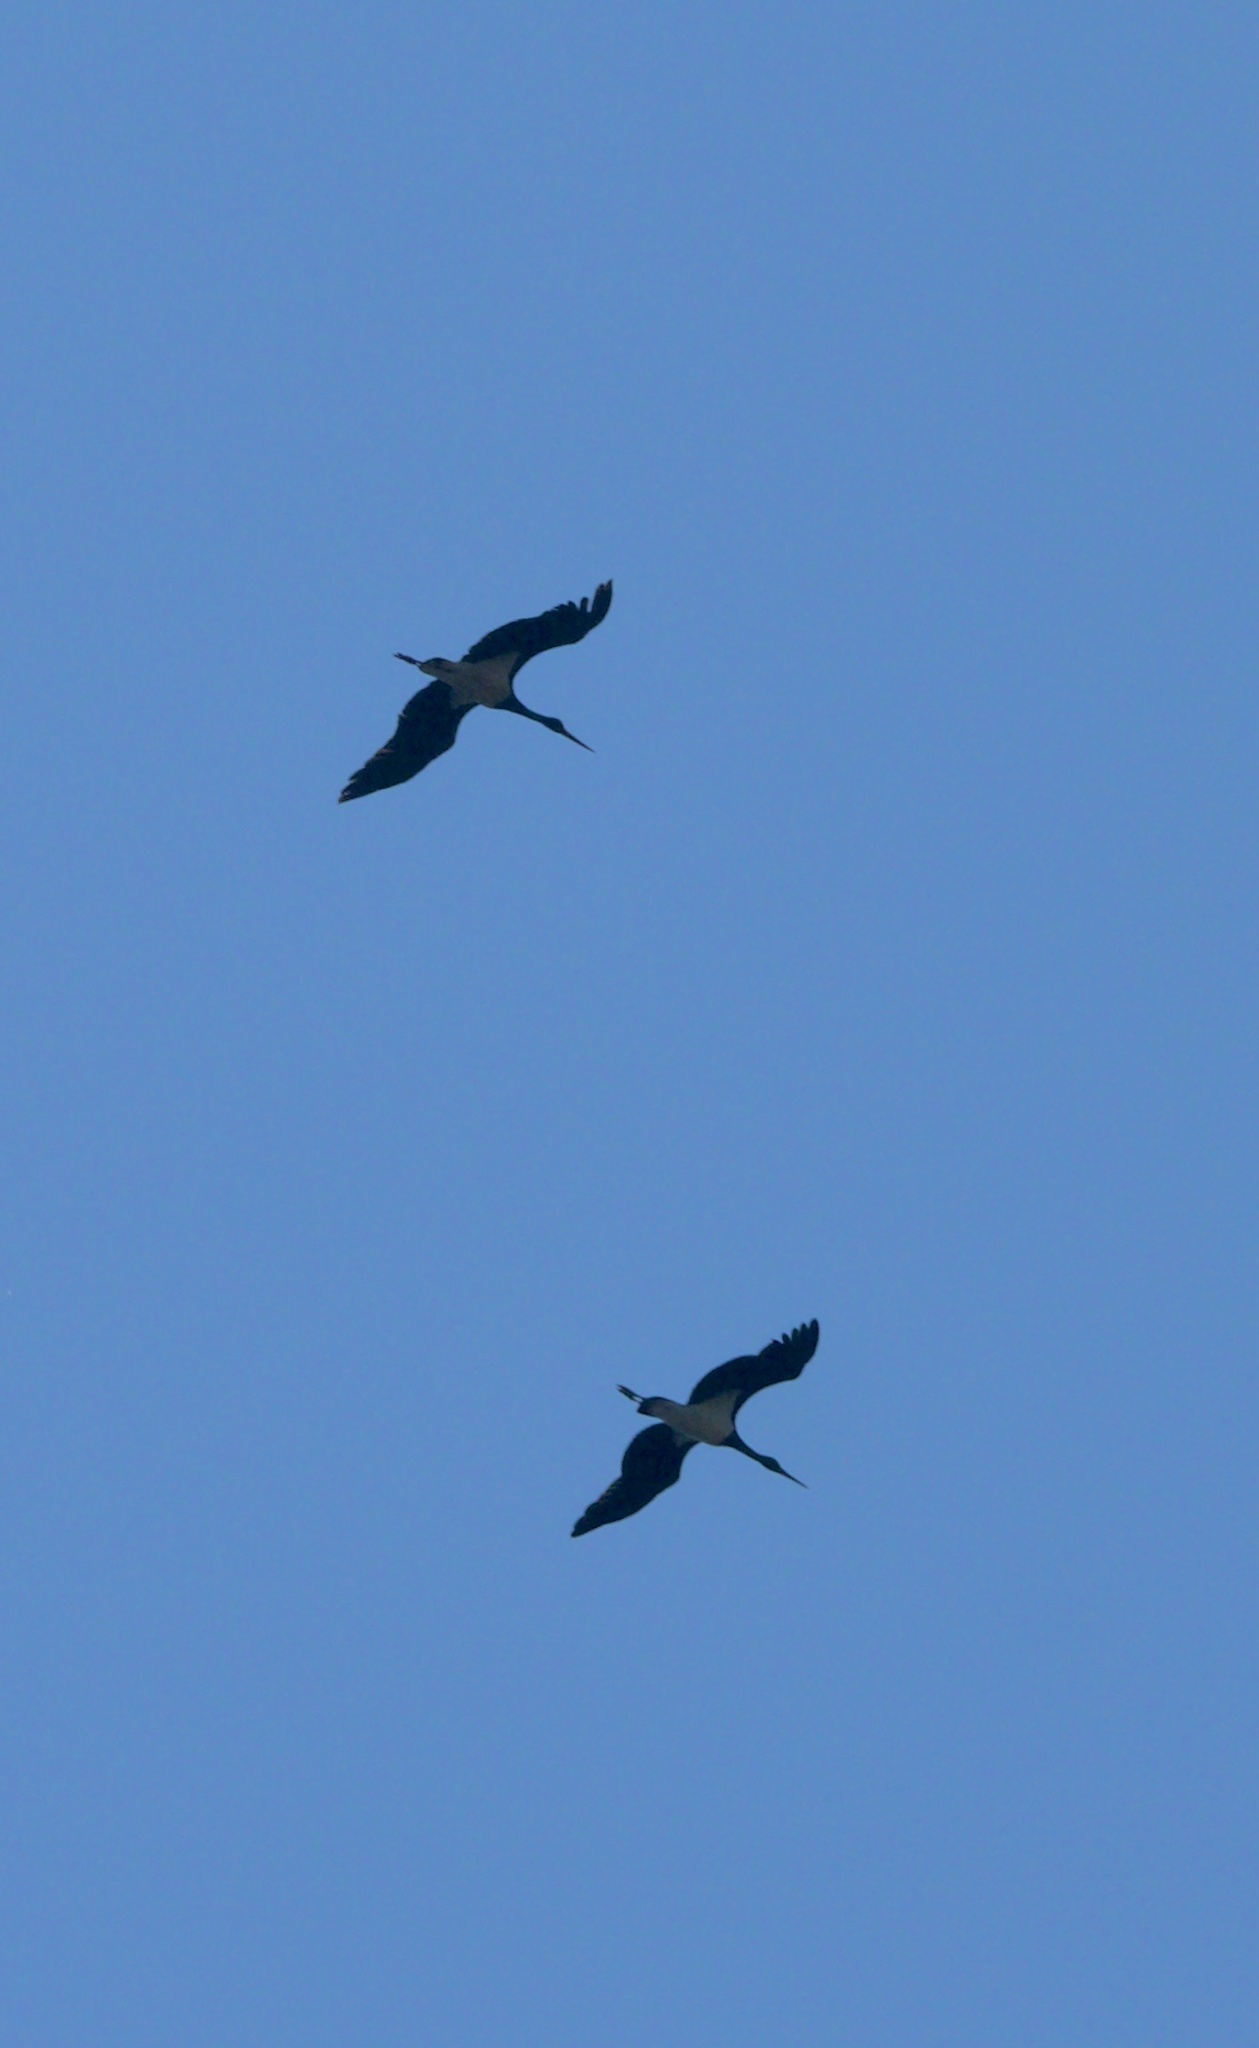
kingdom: Animalia
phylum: Chordata
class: Aves
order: Ciconiiformes
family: Ciconiidae
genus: Ciconia
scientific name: Ciconia nigra
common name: Black stork
